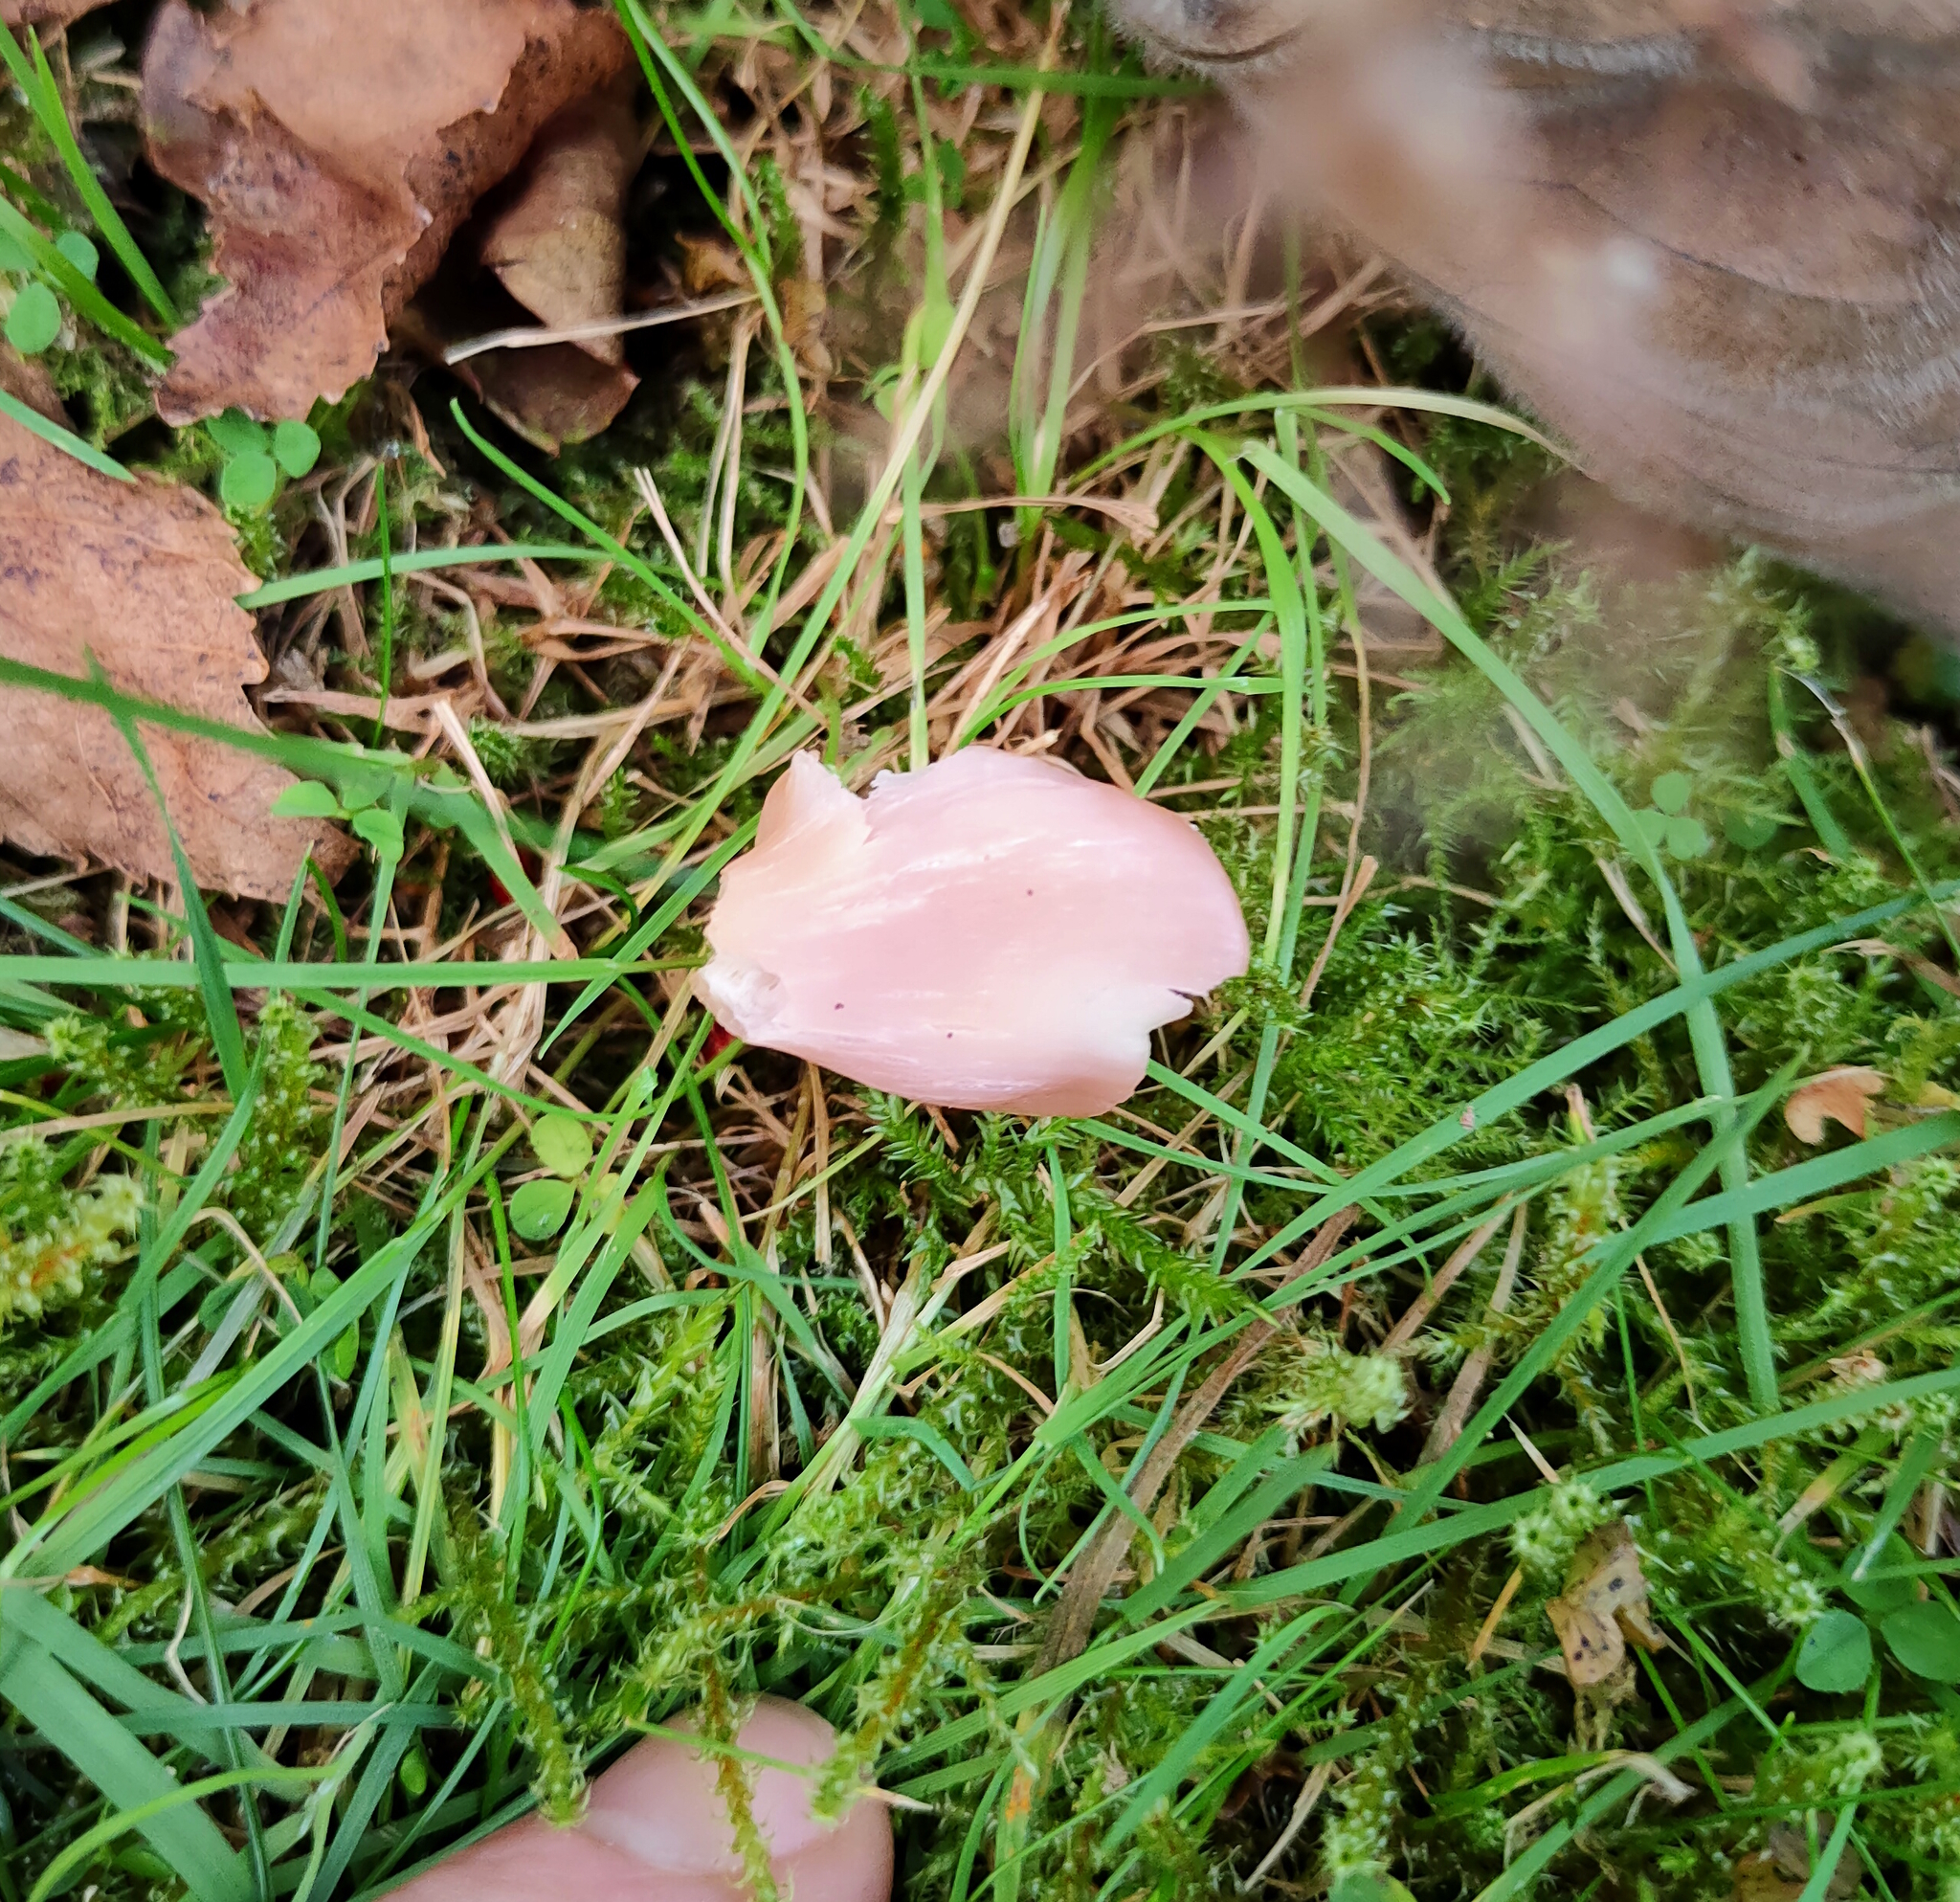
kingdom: Fungi
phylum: Basidiomycota
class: Agaricomycetes
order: Agaricales
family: Hygrophoraceae
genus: Porpolomopsis
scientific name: Porpolomopsis calyptriformis
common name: Pink waxcap
